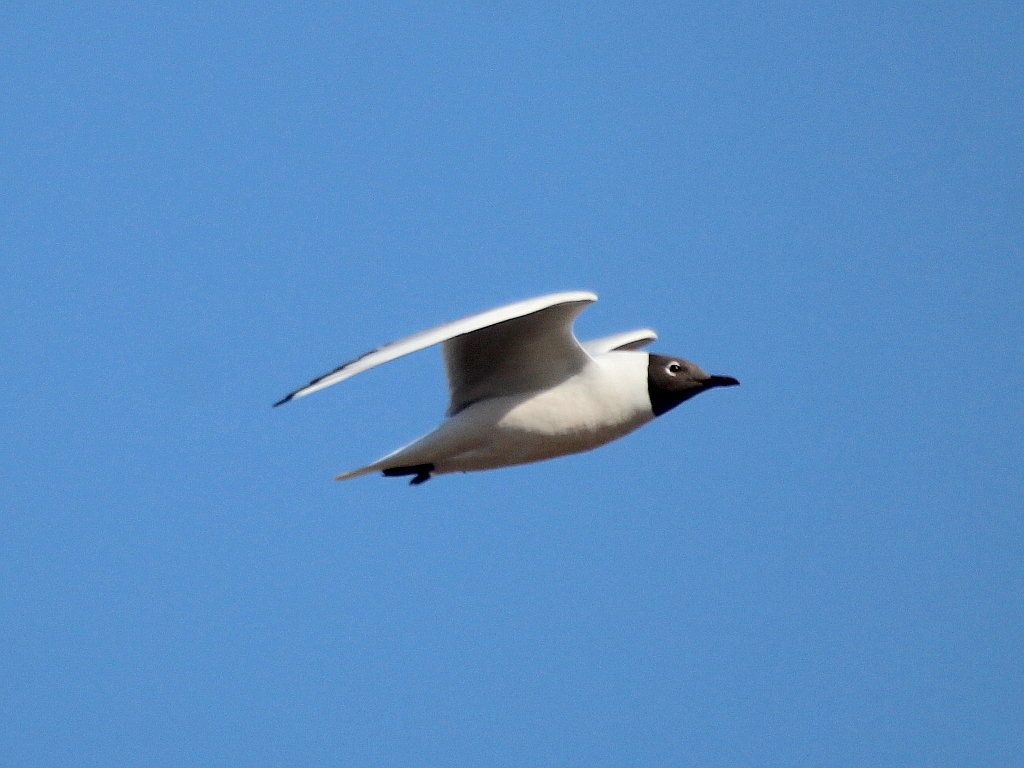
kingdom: Animalia
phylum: Chordata
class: Aves
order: Charadriiformes
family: Laridae
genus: Chroicocephalus
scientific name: Chroicocephalus ridibundus
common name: Black-headed gull
